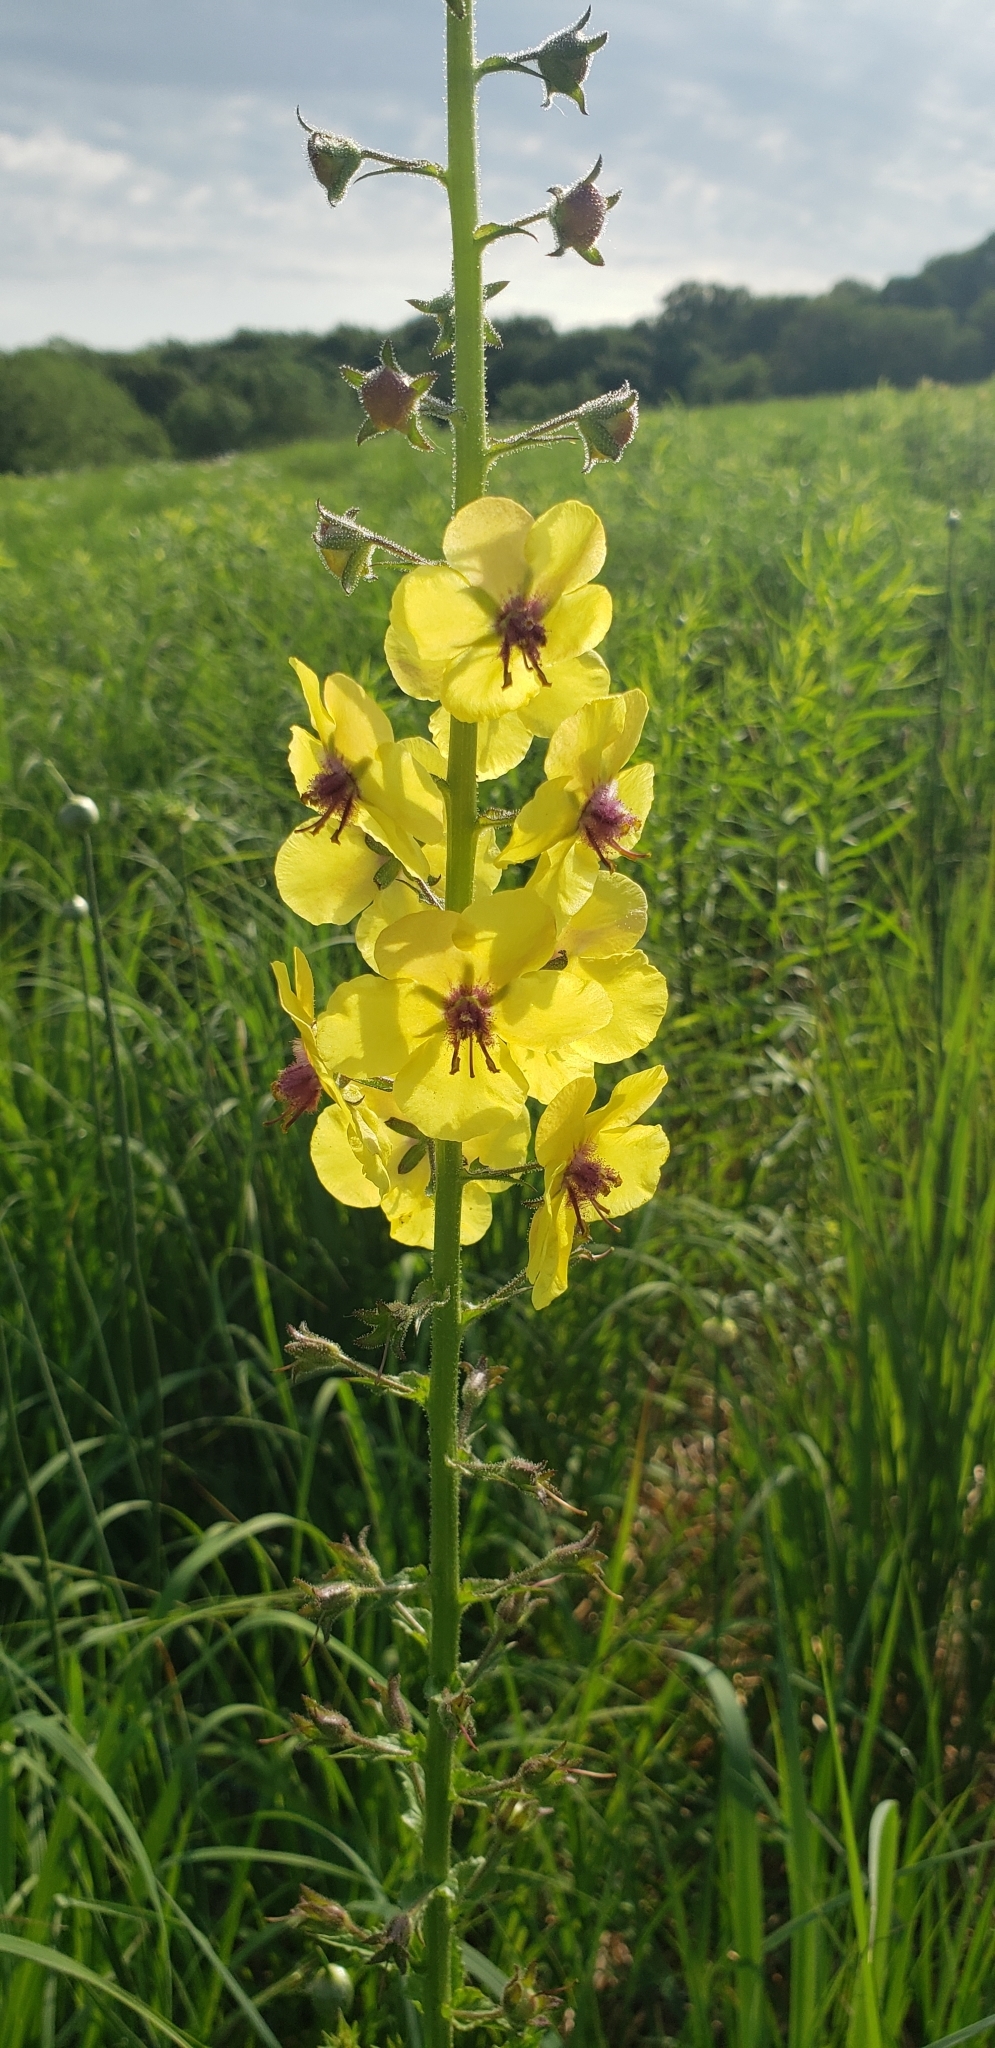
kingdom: Plantae
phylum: Tracheophyta
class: Magnoliopsida
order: Lamiales
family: Scrophulariaceae
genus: Verbascum
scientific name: Verbascum blattaria
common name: Moth mullein
